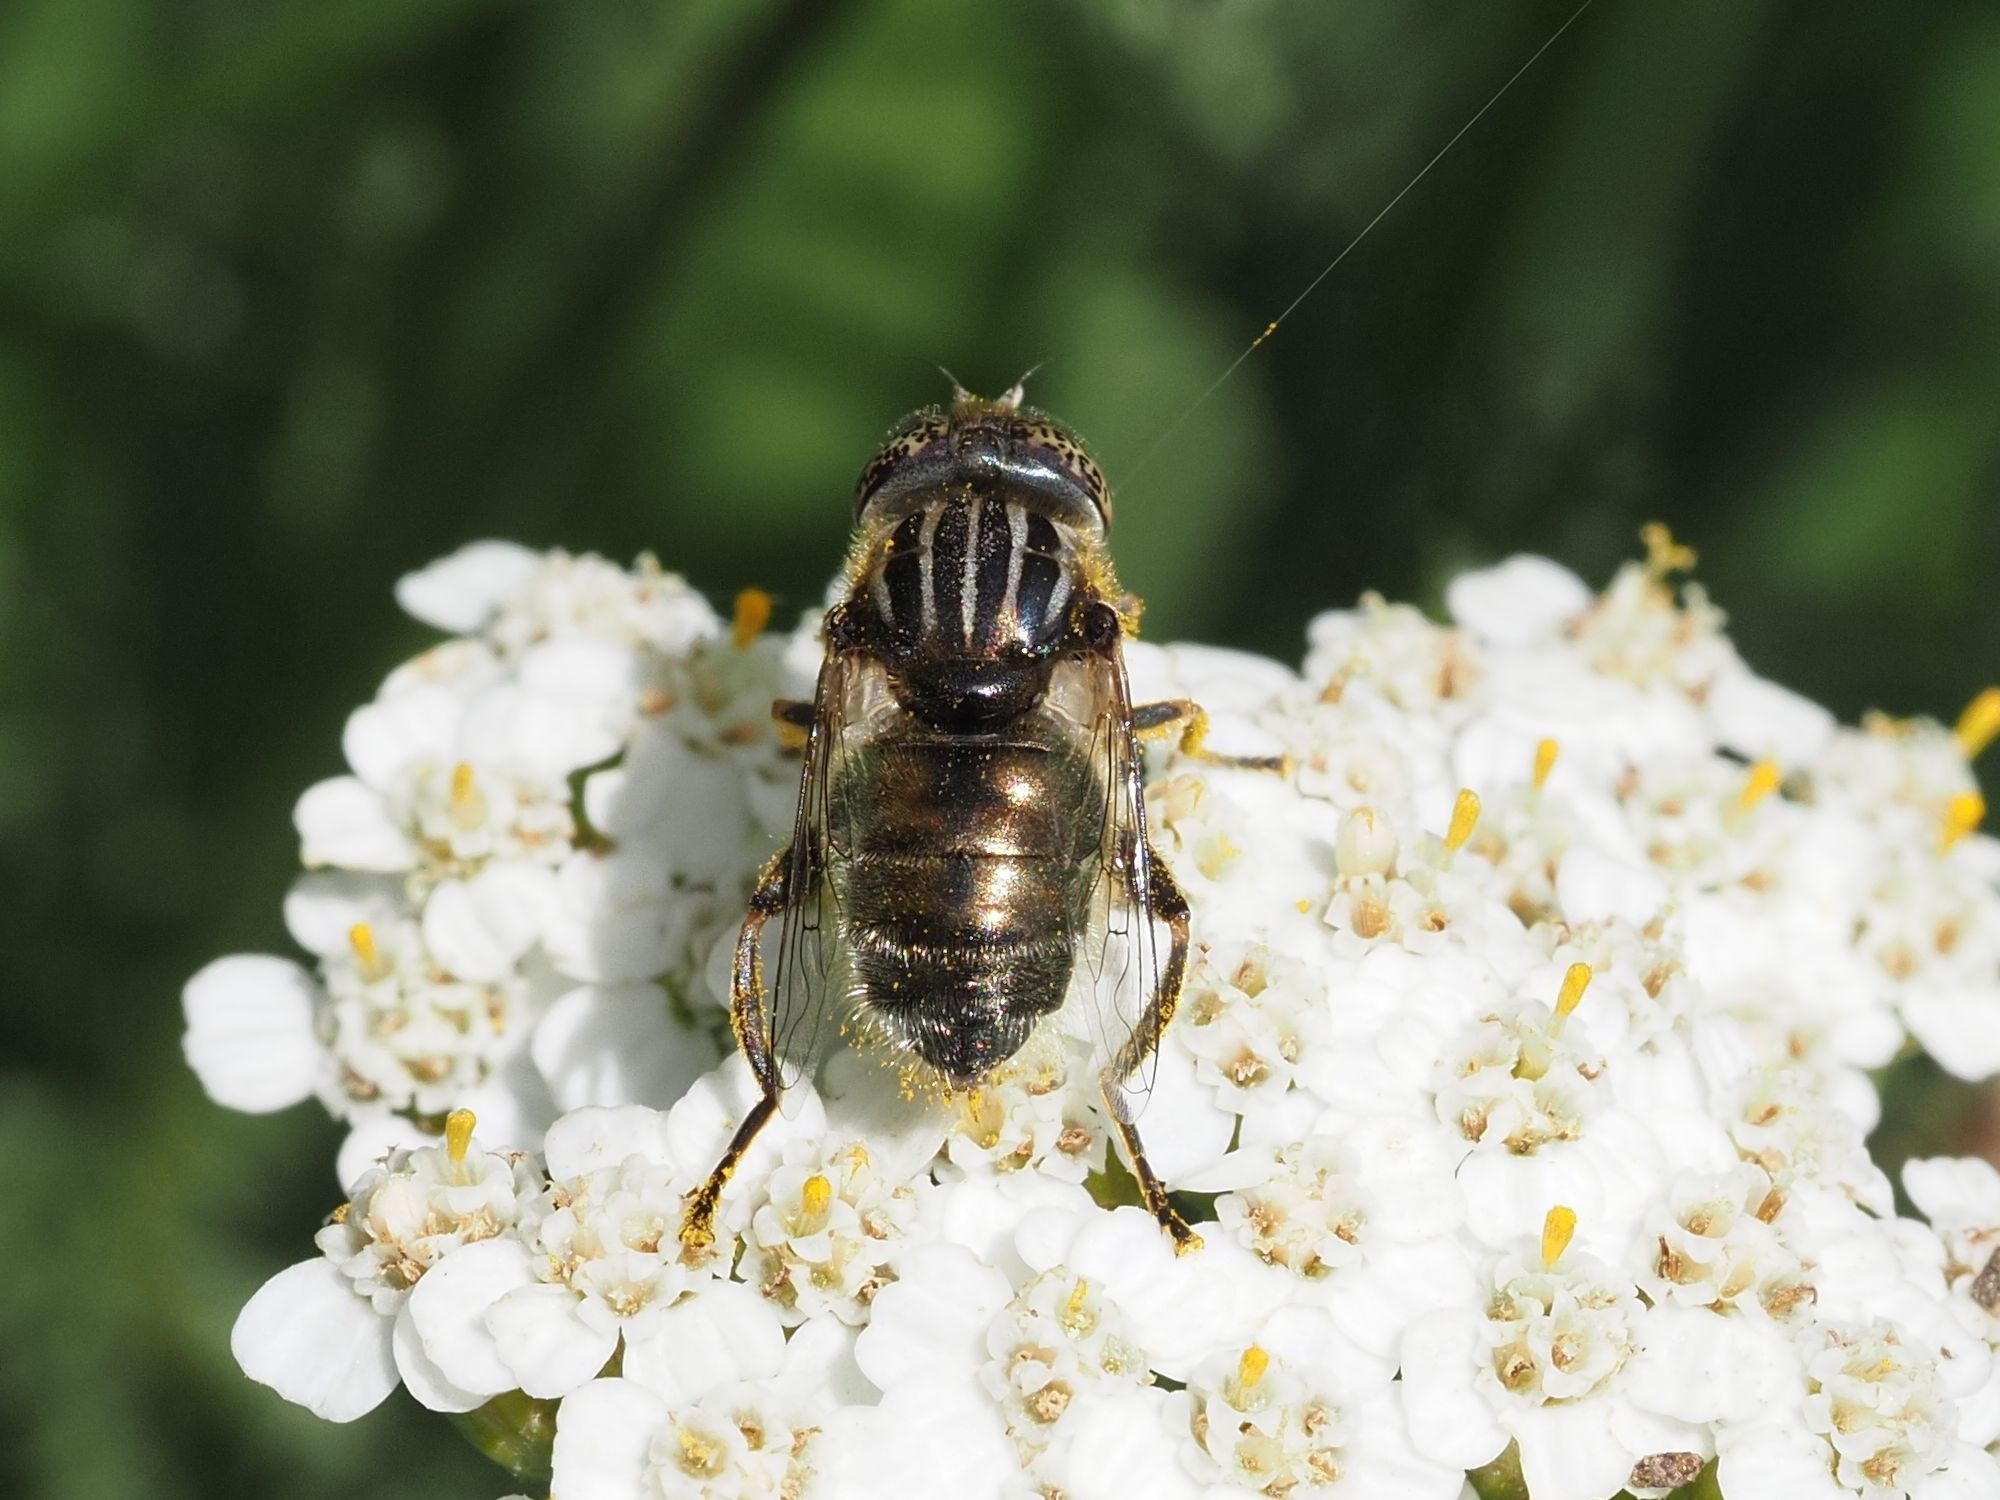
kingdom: Animalia
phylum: Arthropoda
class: Insecta
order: Diptera
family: Syrphidae
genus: Eristalinus
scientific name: Eristalinus aeneus
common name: Syrphid fly
